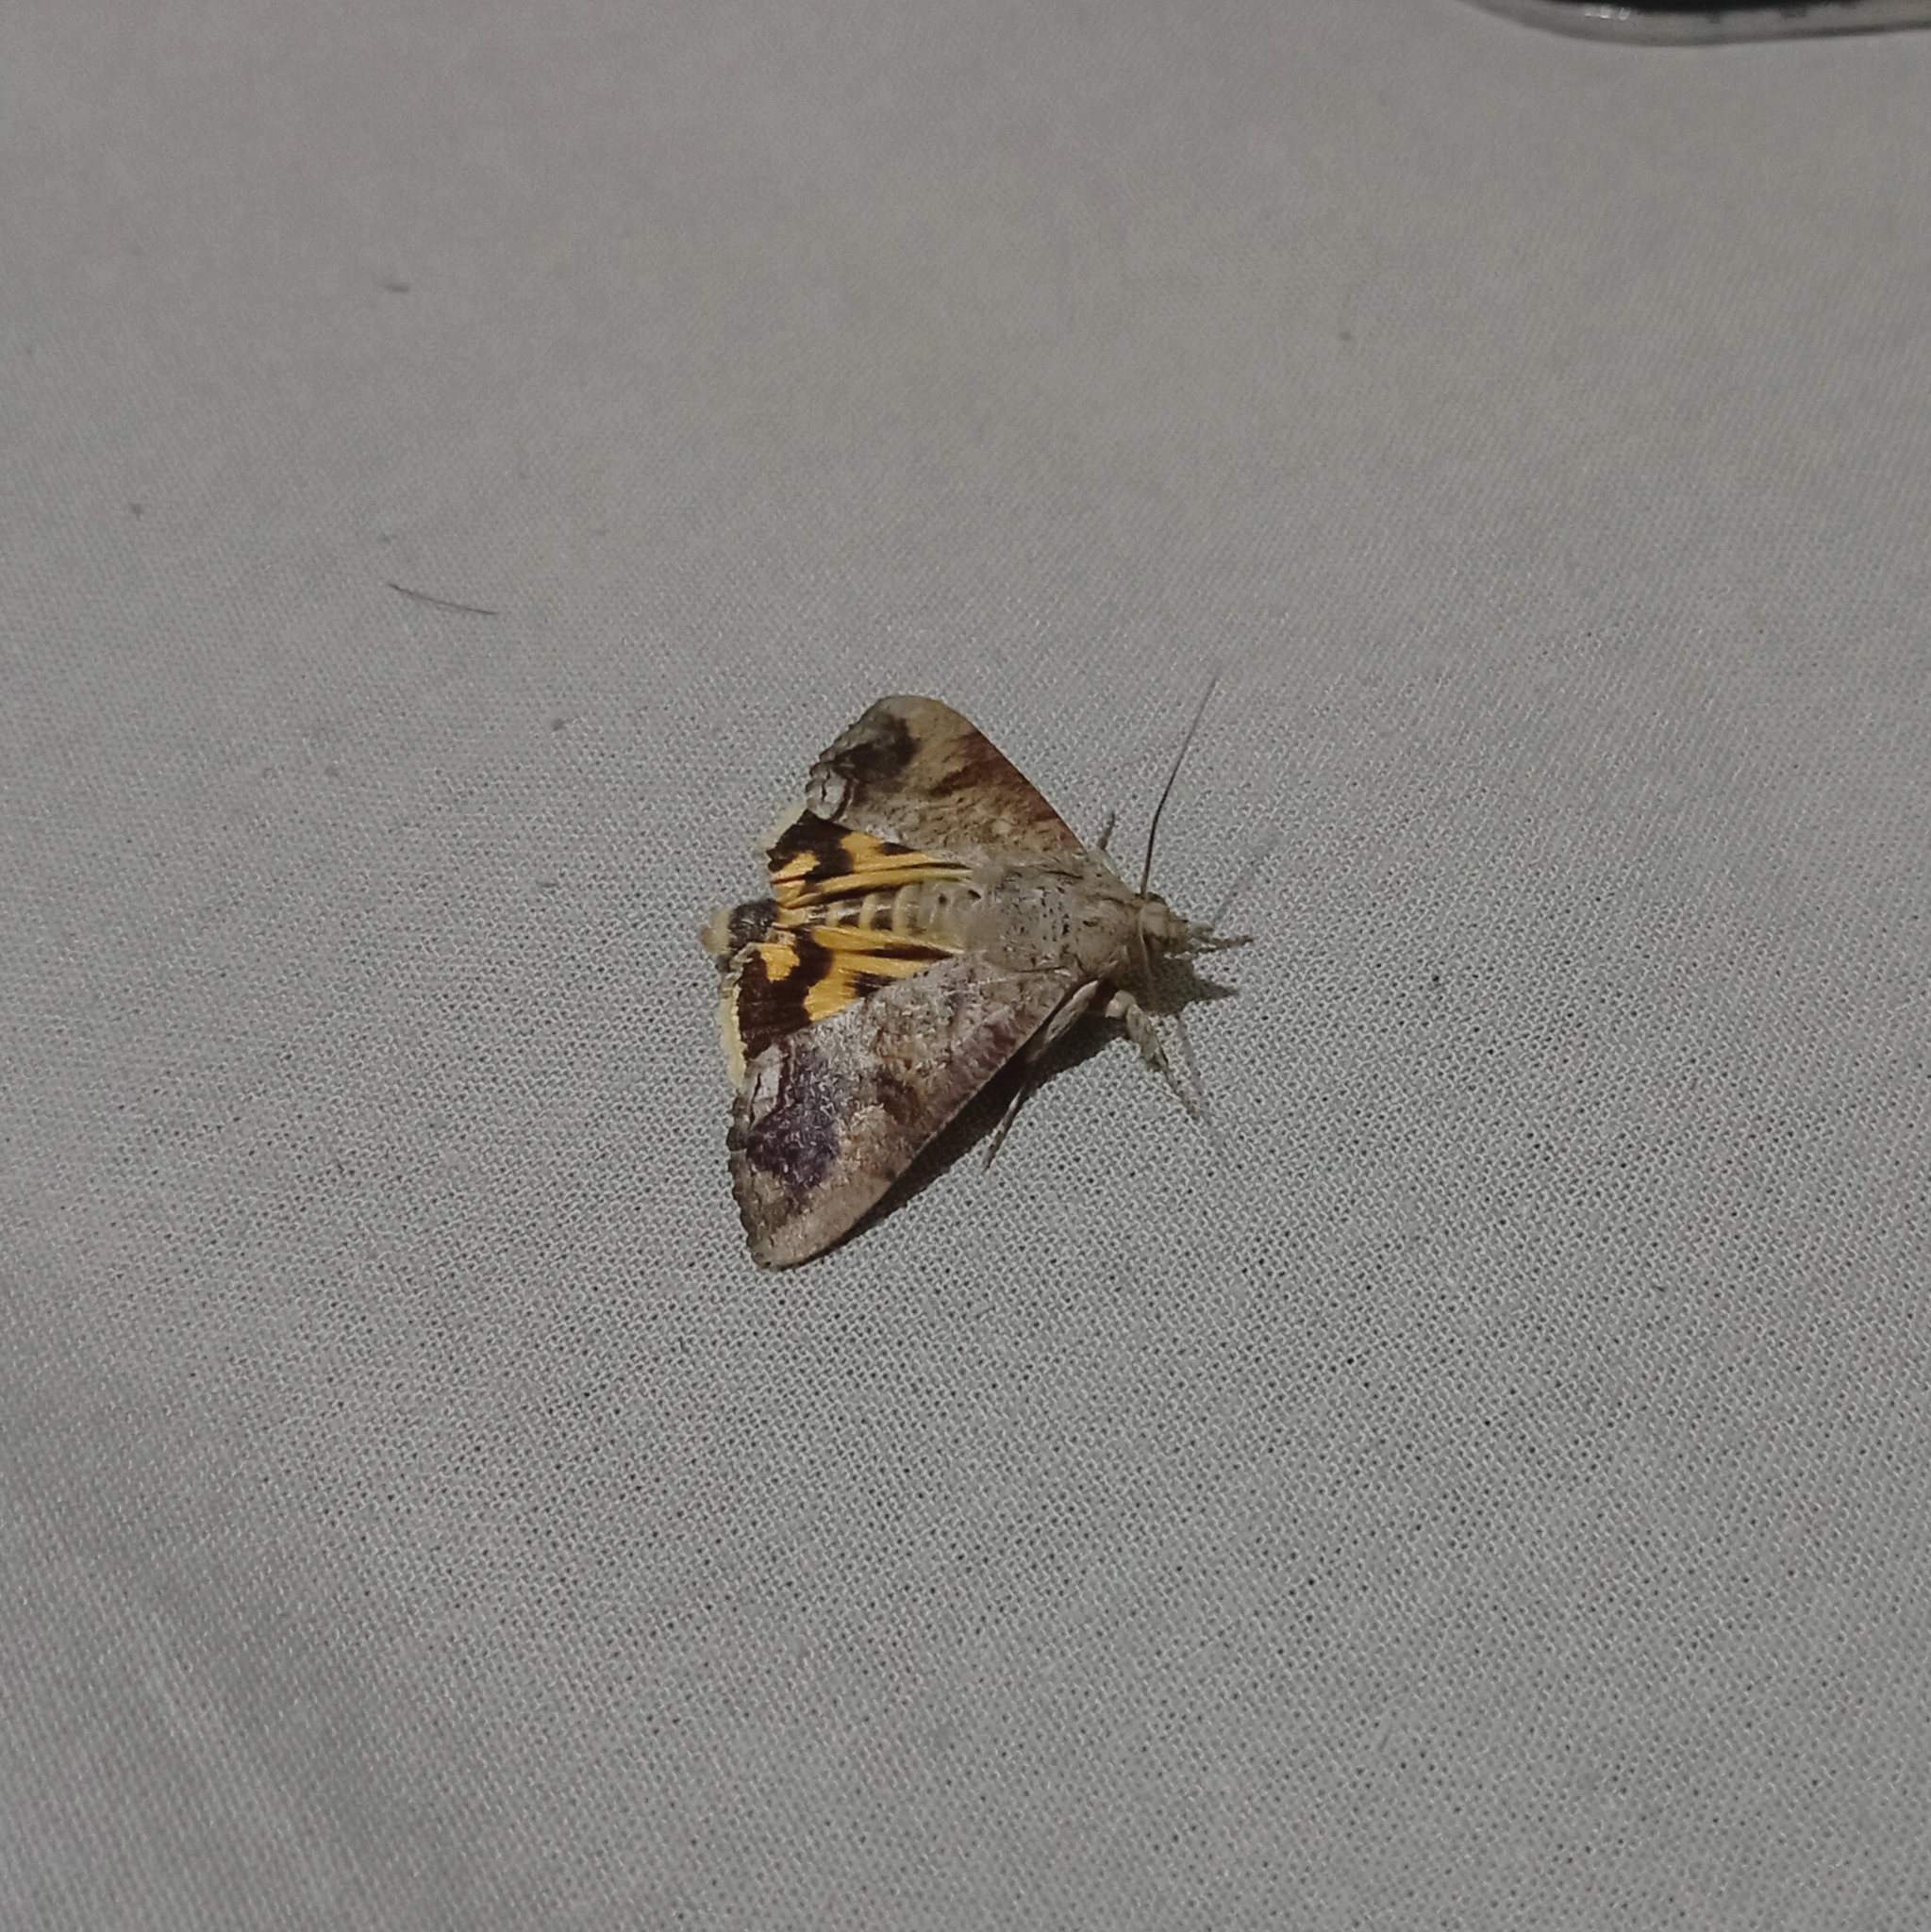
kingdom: Animalia
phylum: Arthropoda
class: Insecta
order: Lepidoptera
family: Erebidae
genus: Hypocala
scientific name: Hypocala andremona
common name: Hypocala moth
